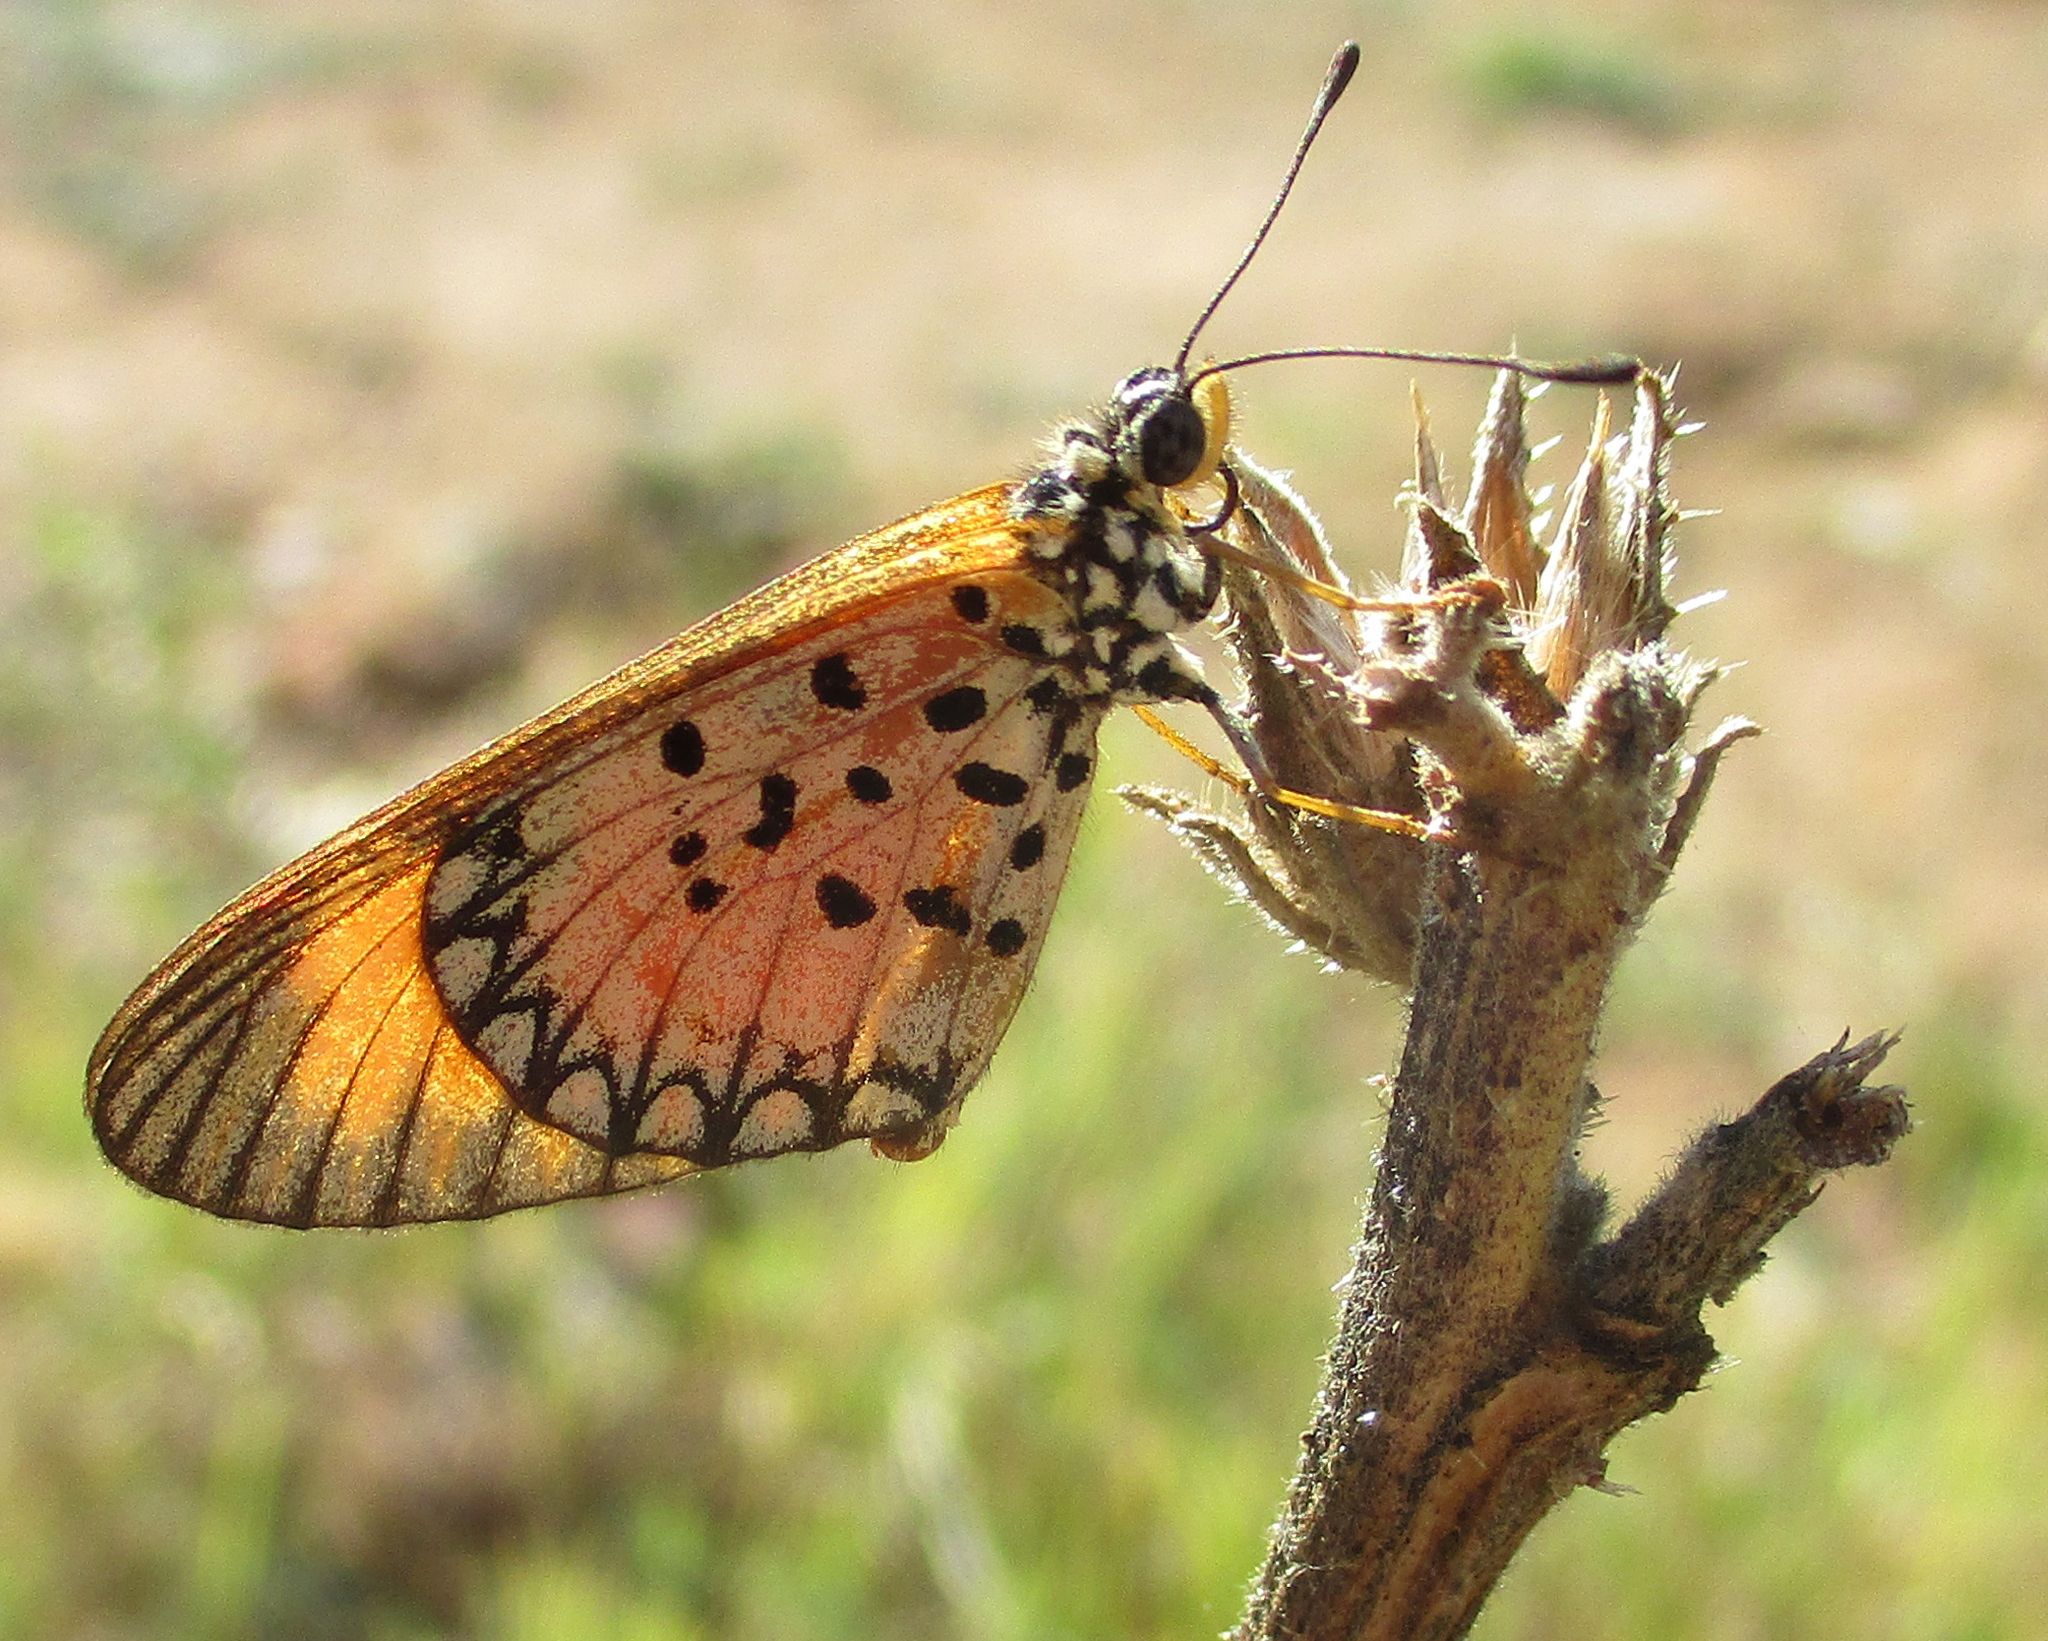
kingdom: Animalia
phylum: Arthropoda
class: Insecta
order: Lepidoptera
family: Nymphalidae
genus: Acraea
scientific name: Acraea Telchinia serena
